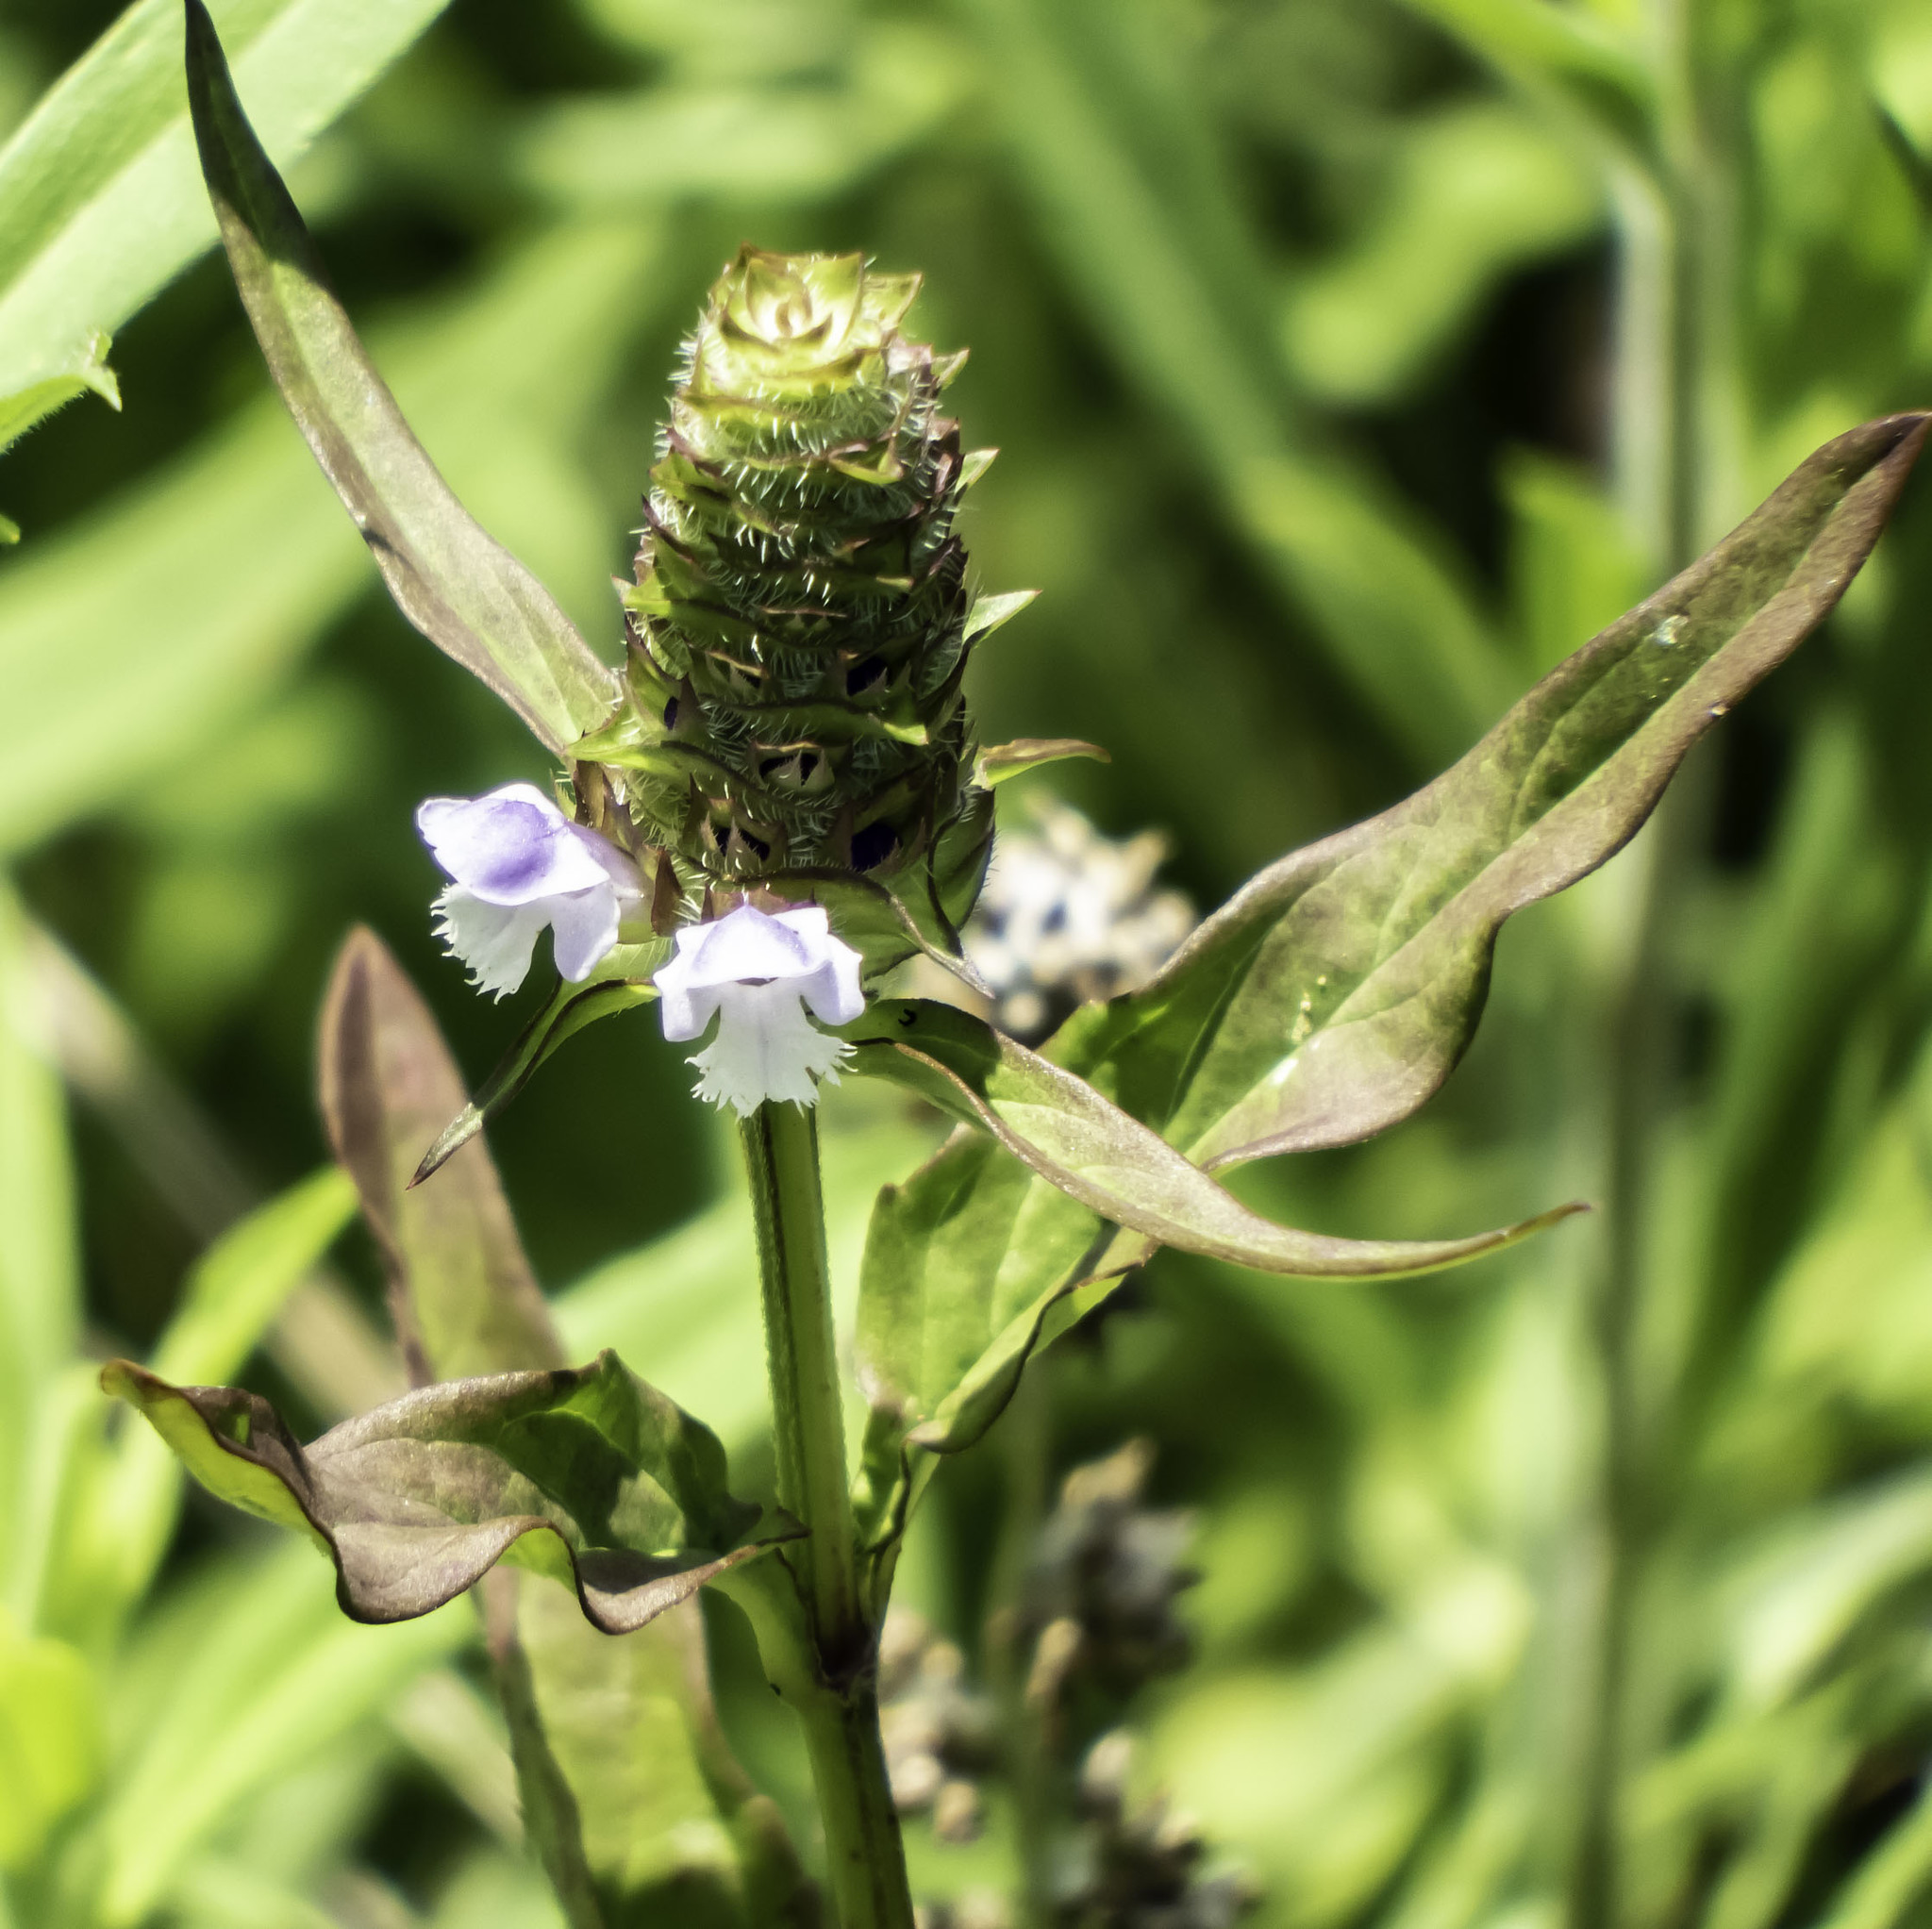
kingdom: Plantae
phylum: Tracheophyta
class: Magnoliopsida
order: Lamiales
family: Lamiaceae
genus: Prunella
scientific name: Prunella vulgaris
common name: Heal-all
